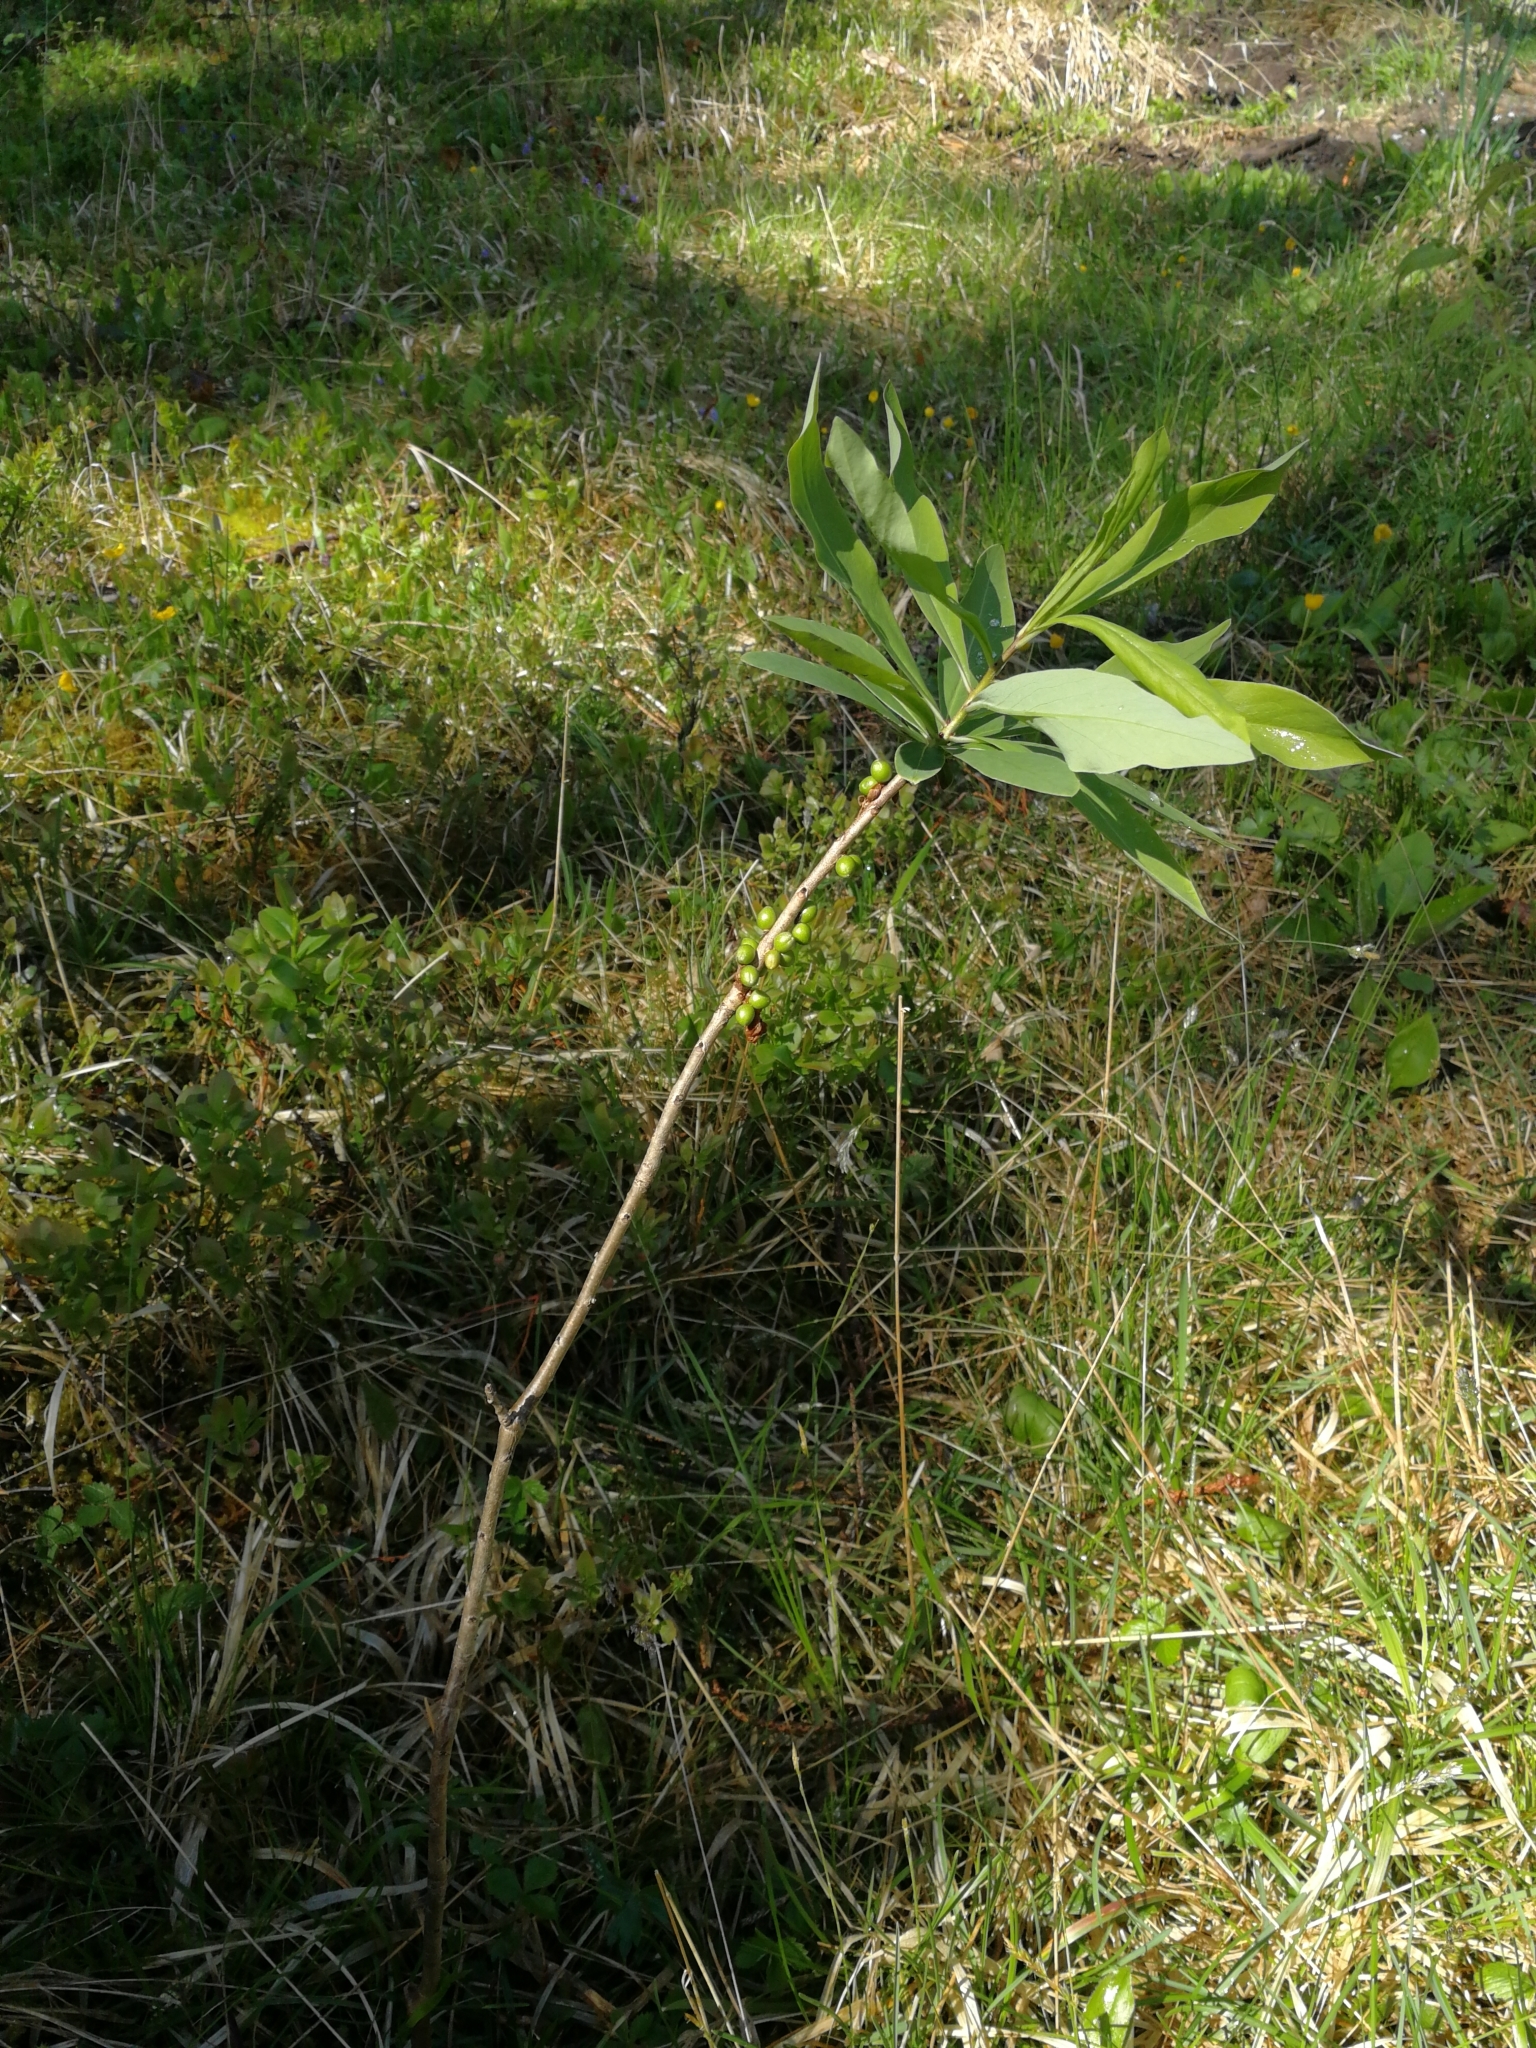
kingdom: Plantae
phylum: Tracheophyta
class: Magnoliopsida
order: Malvales
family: Thymelaeaceae
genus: Daphne
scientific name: Daphne mezereum
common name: Mezereon
